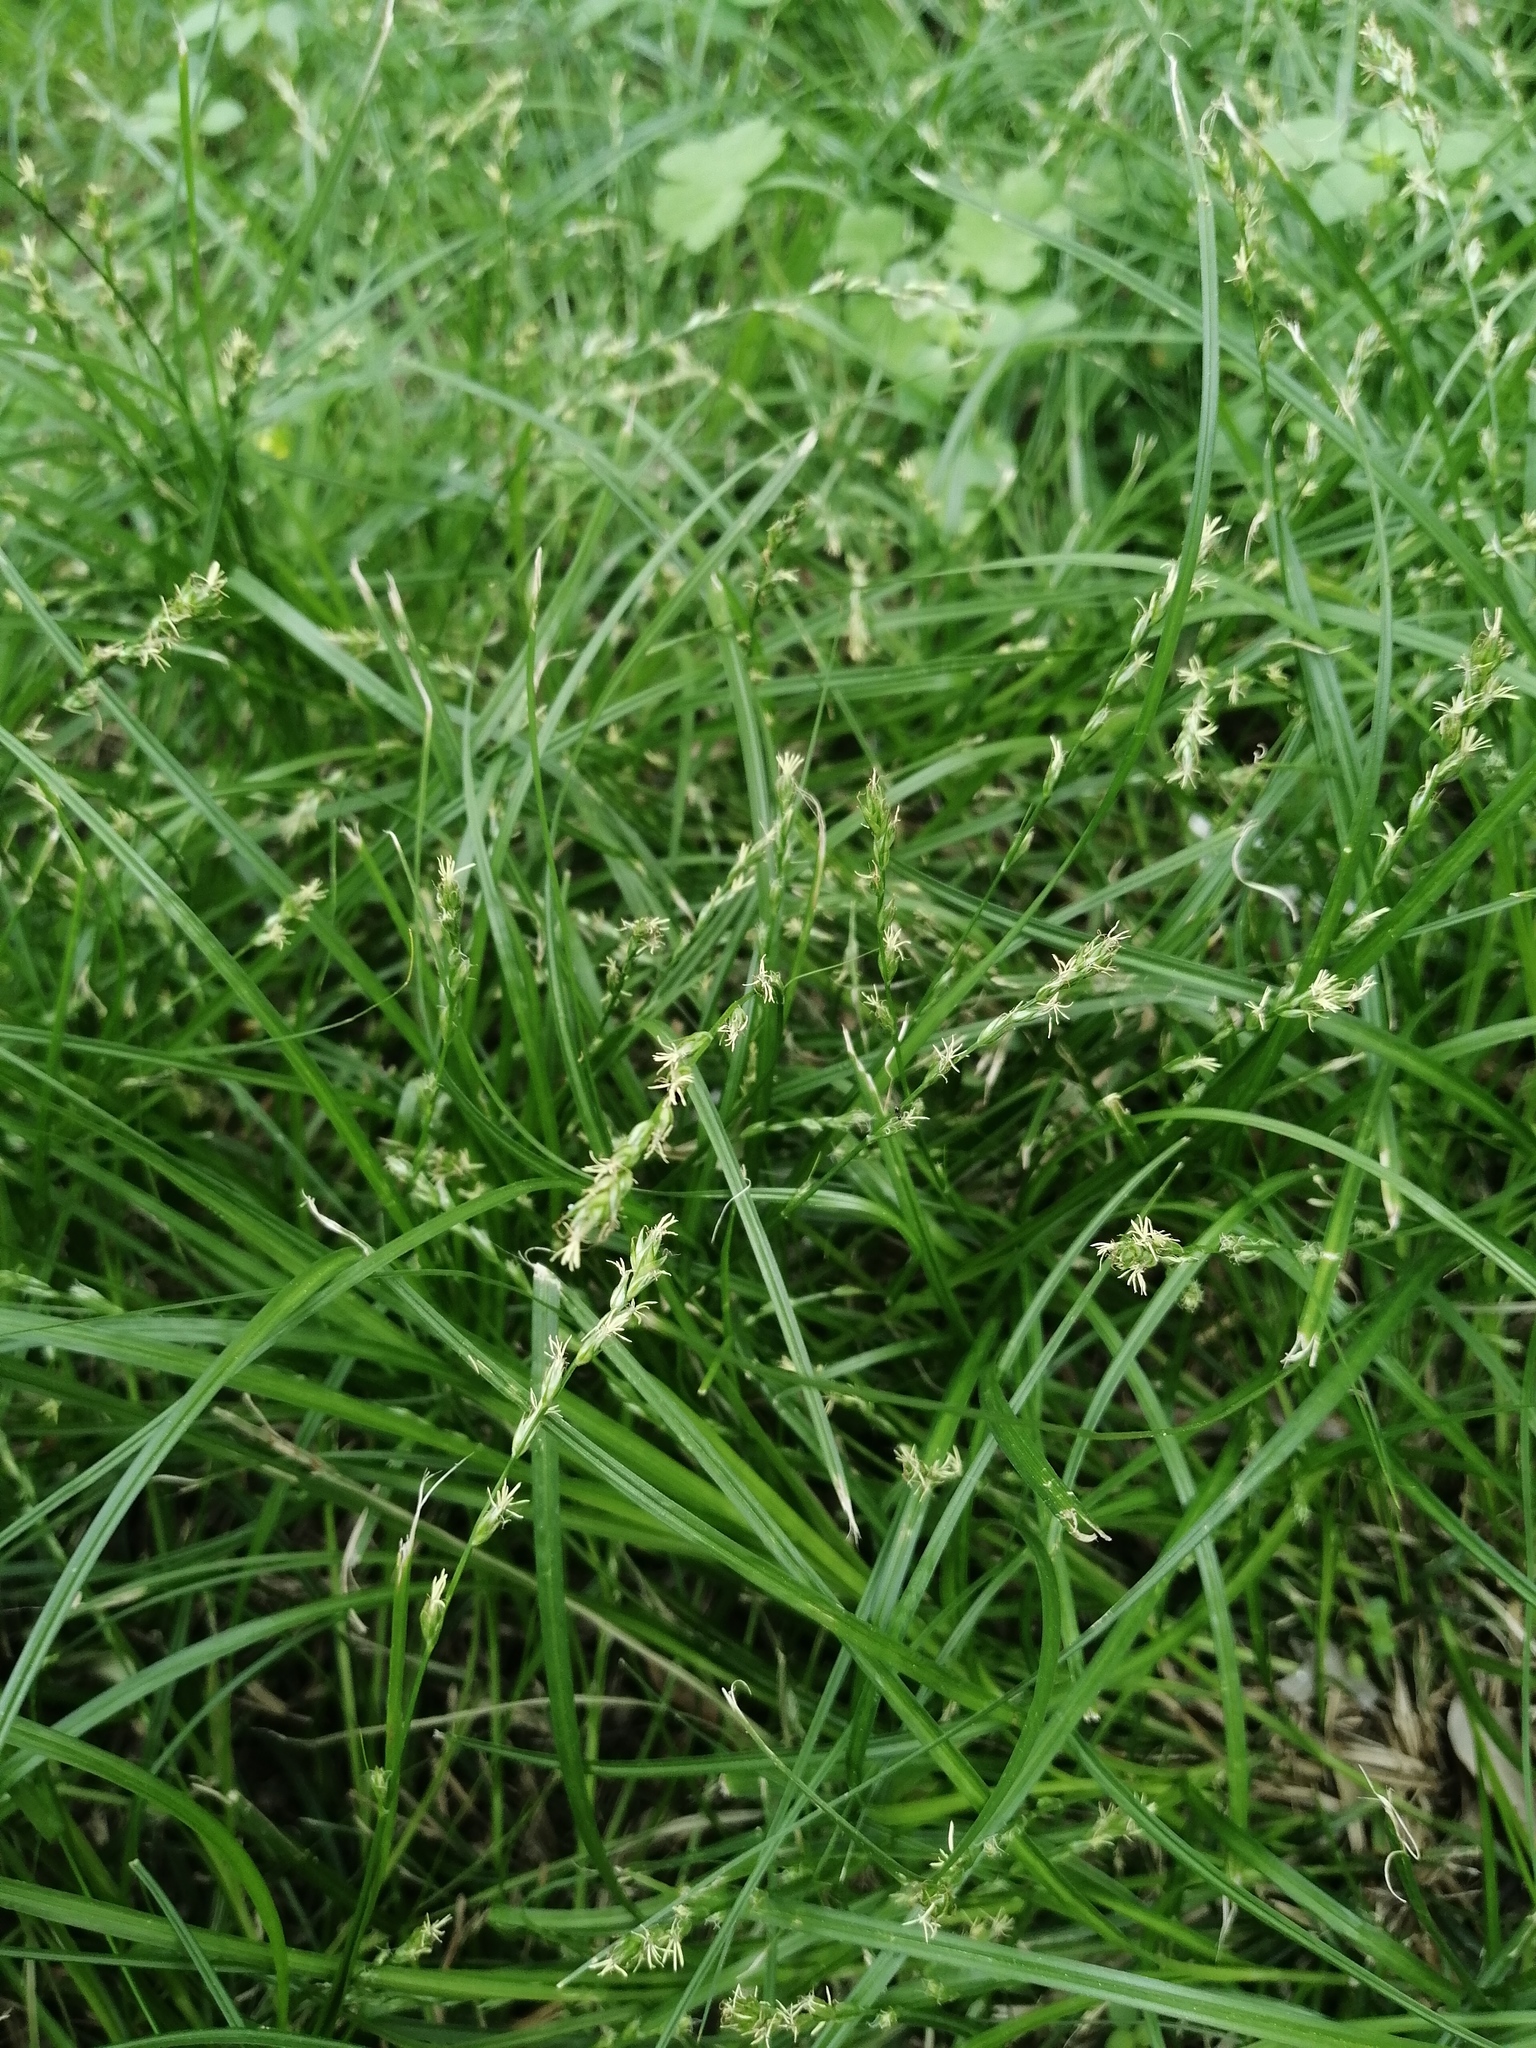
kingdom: Plantae
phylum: Tracheophyta
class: Liliopsida
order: Poales
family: Cyperaceae
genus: Carex
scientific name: Carex divulsa
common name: Grassland sedge
